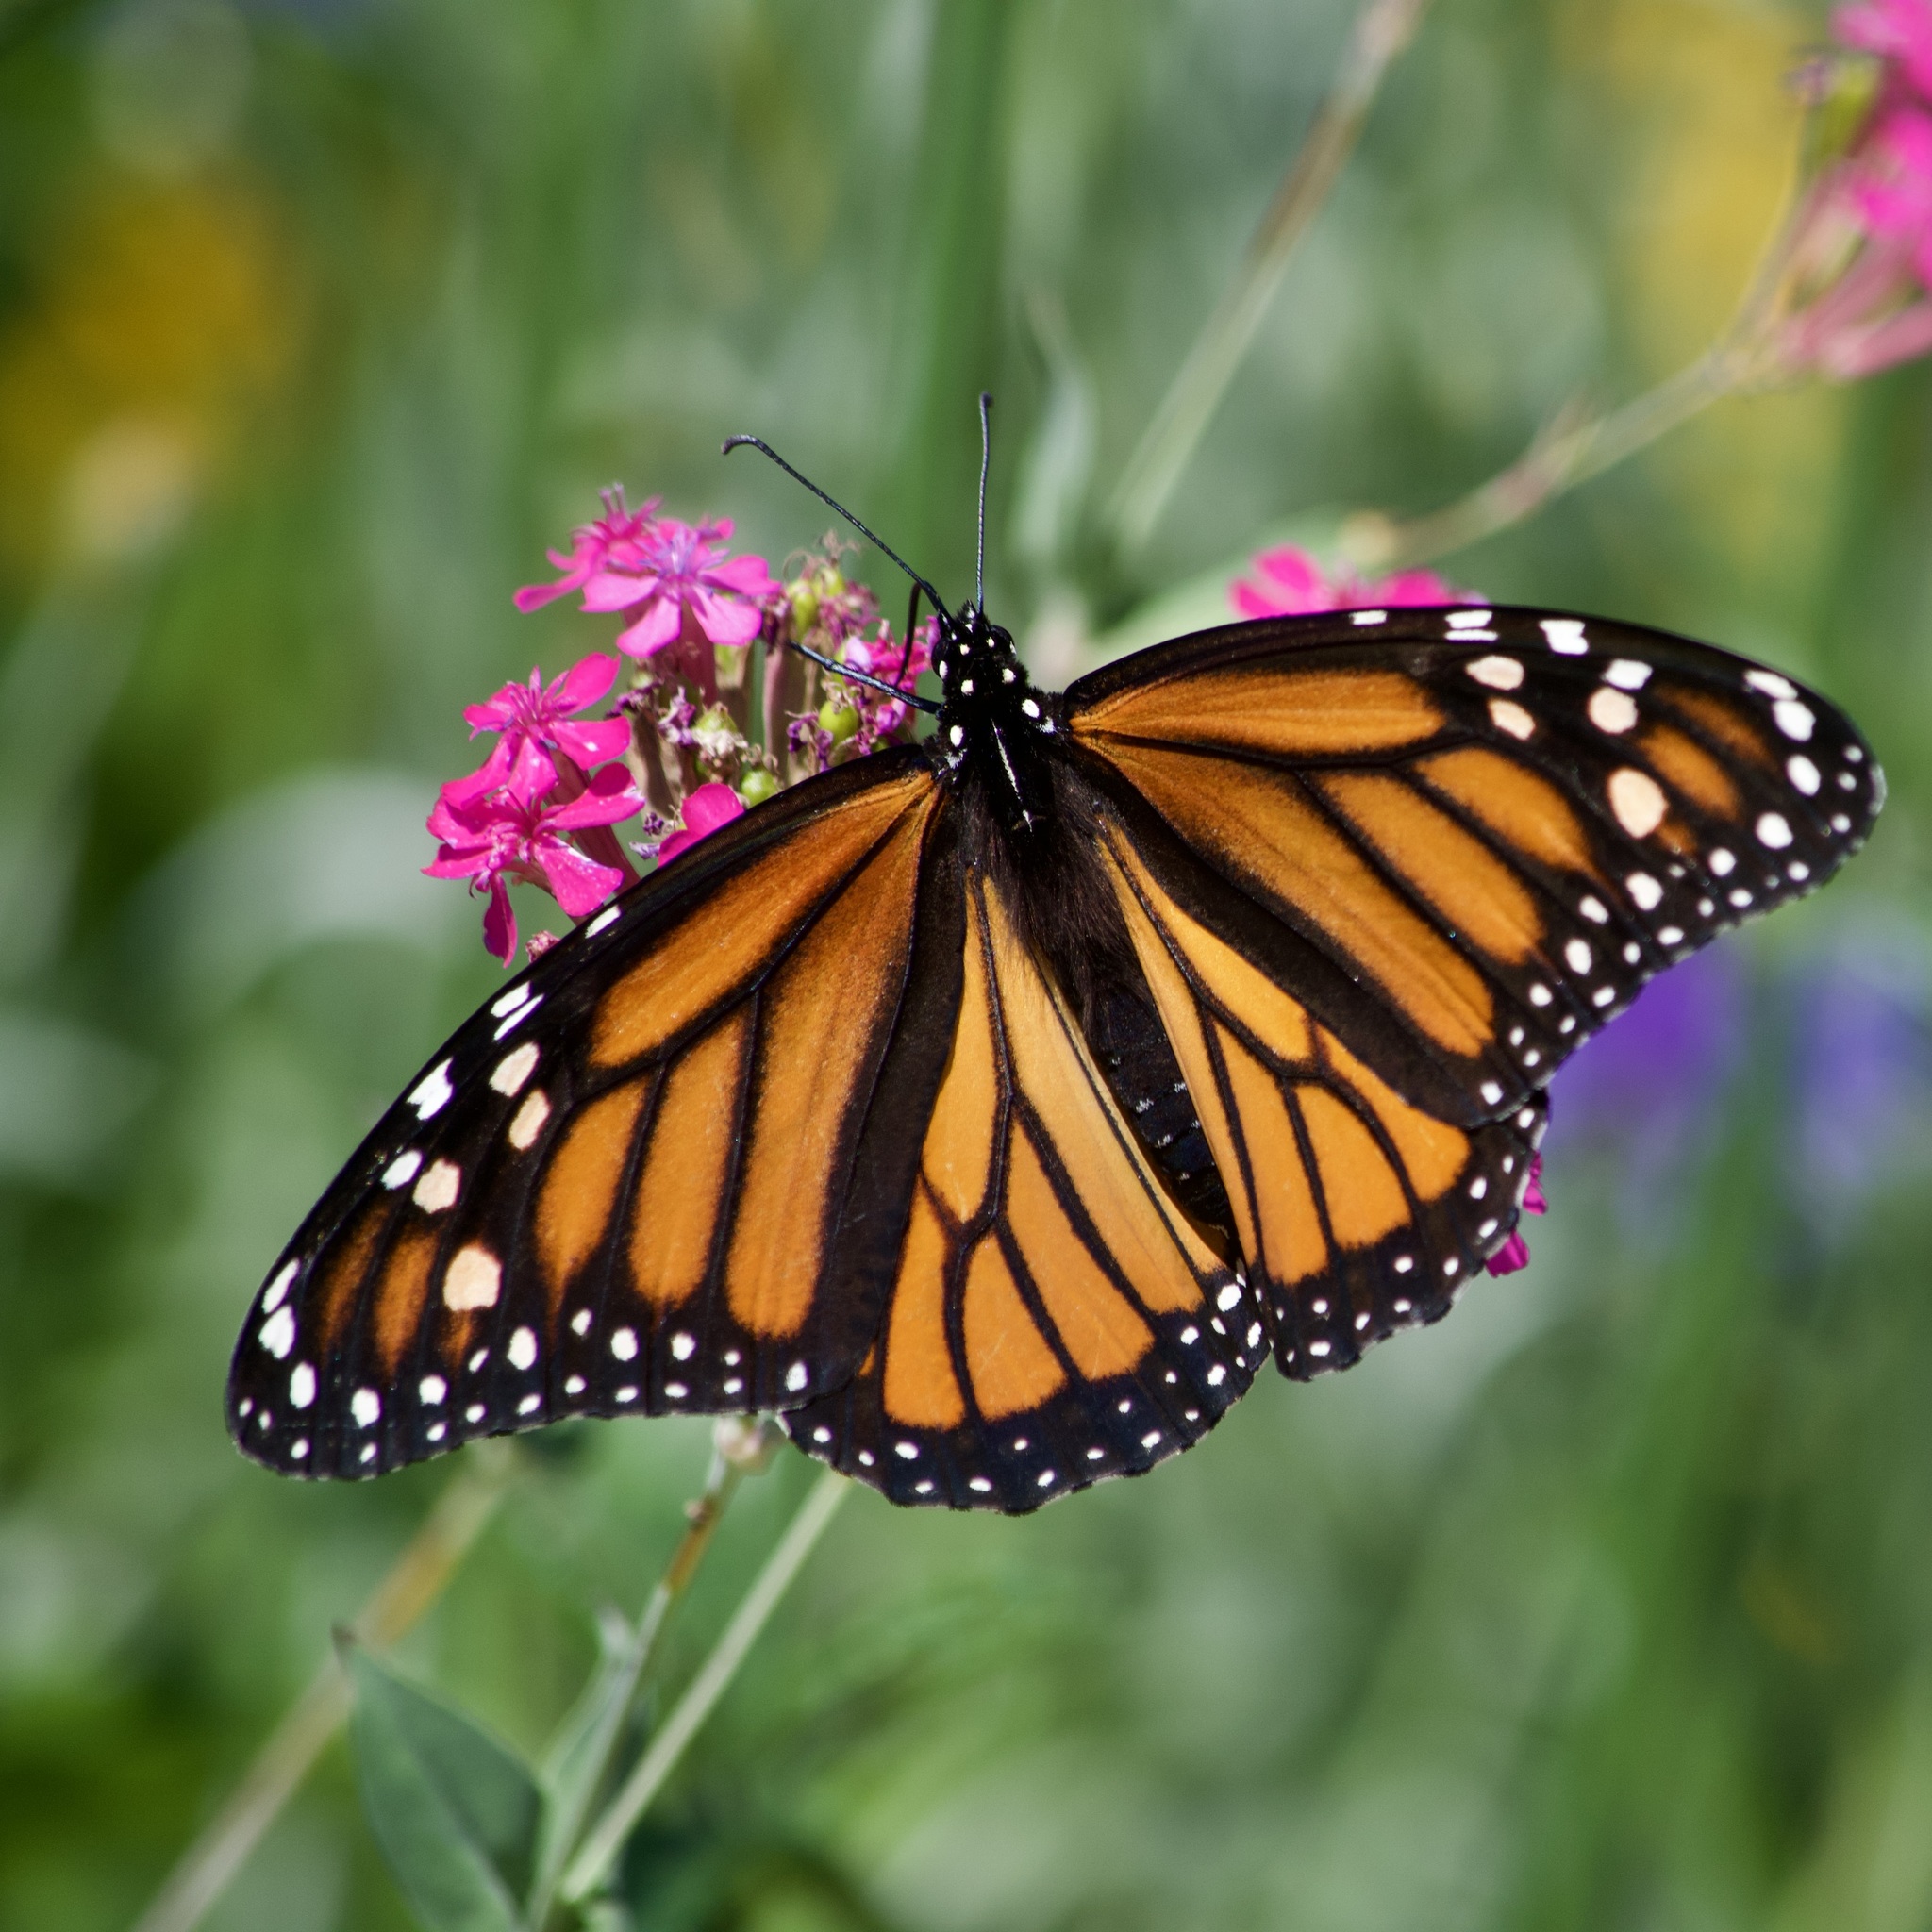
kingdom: Animalia
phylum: Arthropoda
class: Insecta
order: Lepidoptera
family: Nymphalidae
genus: Danaus
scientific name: Danaus plexippus
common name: Monarch
